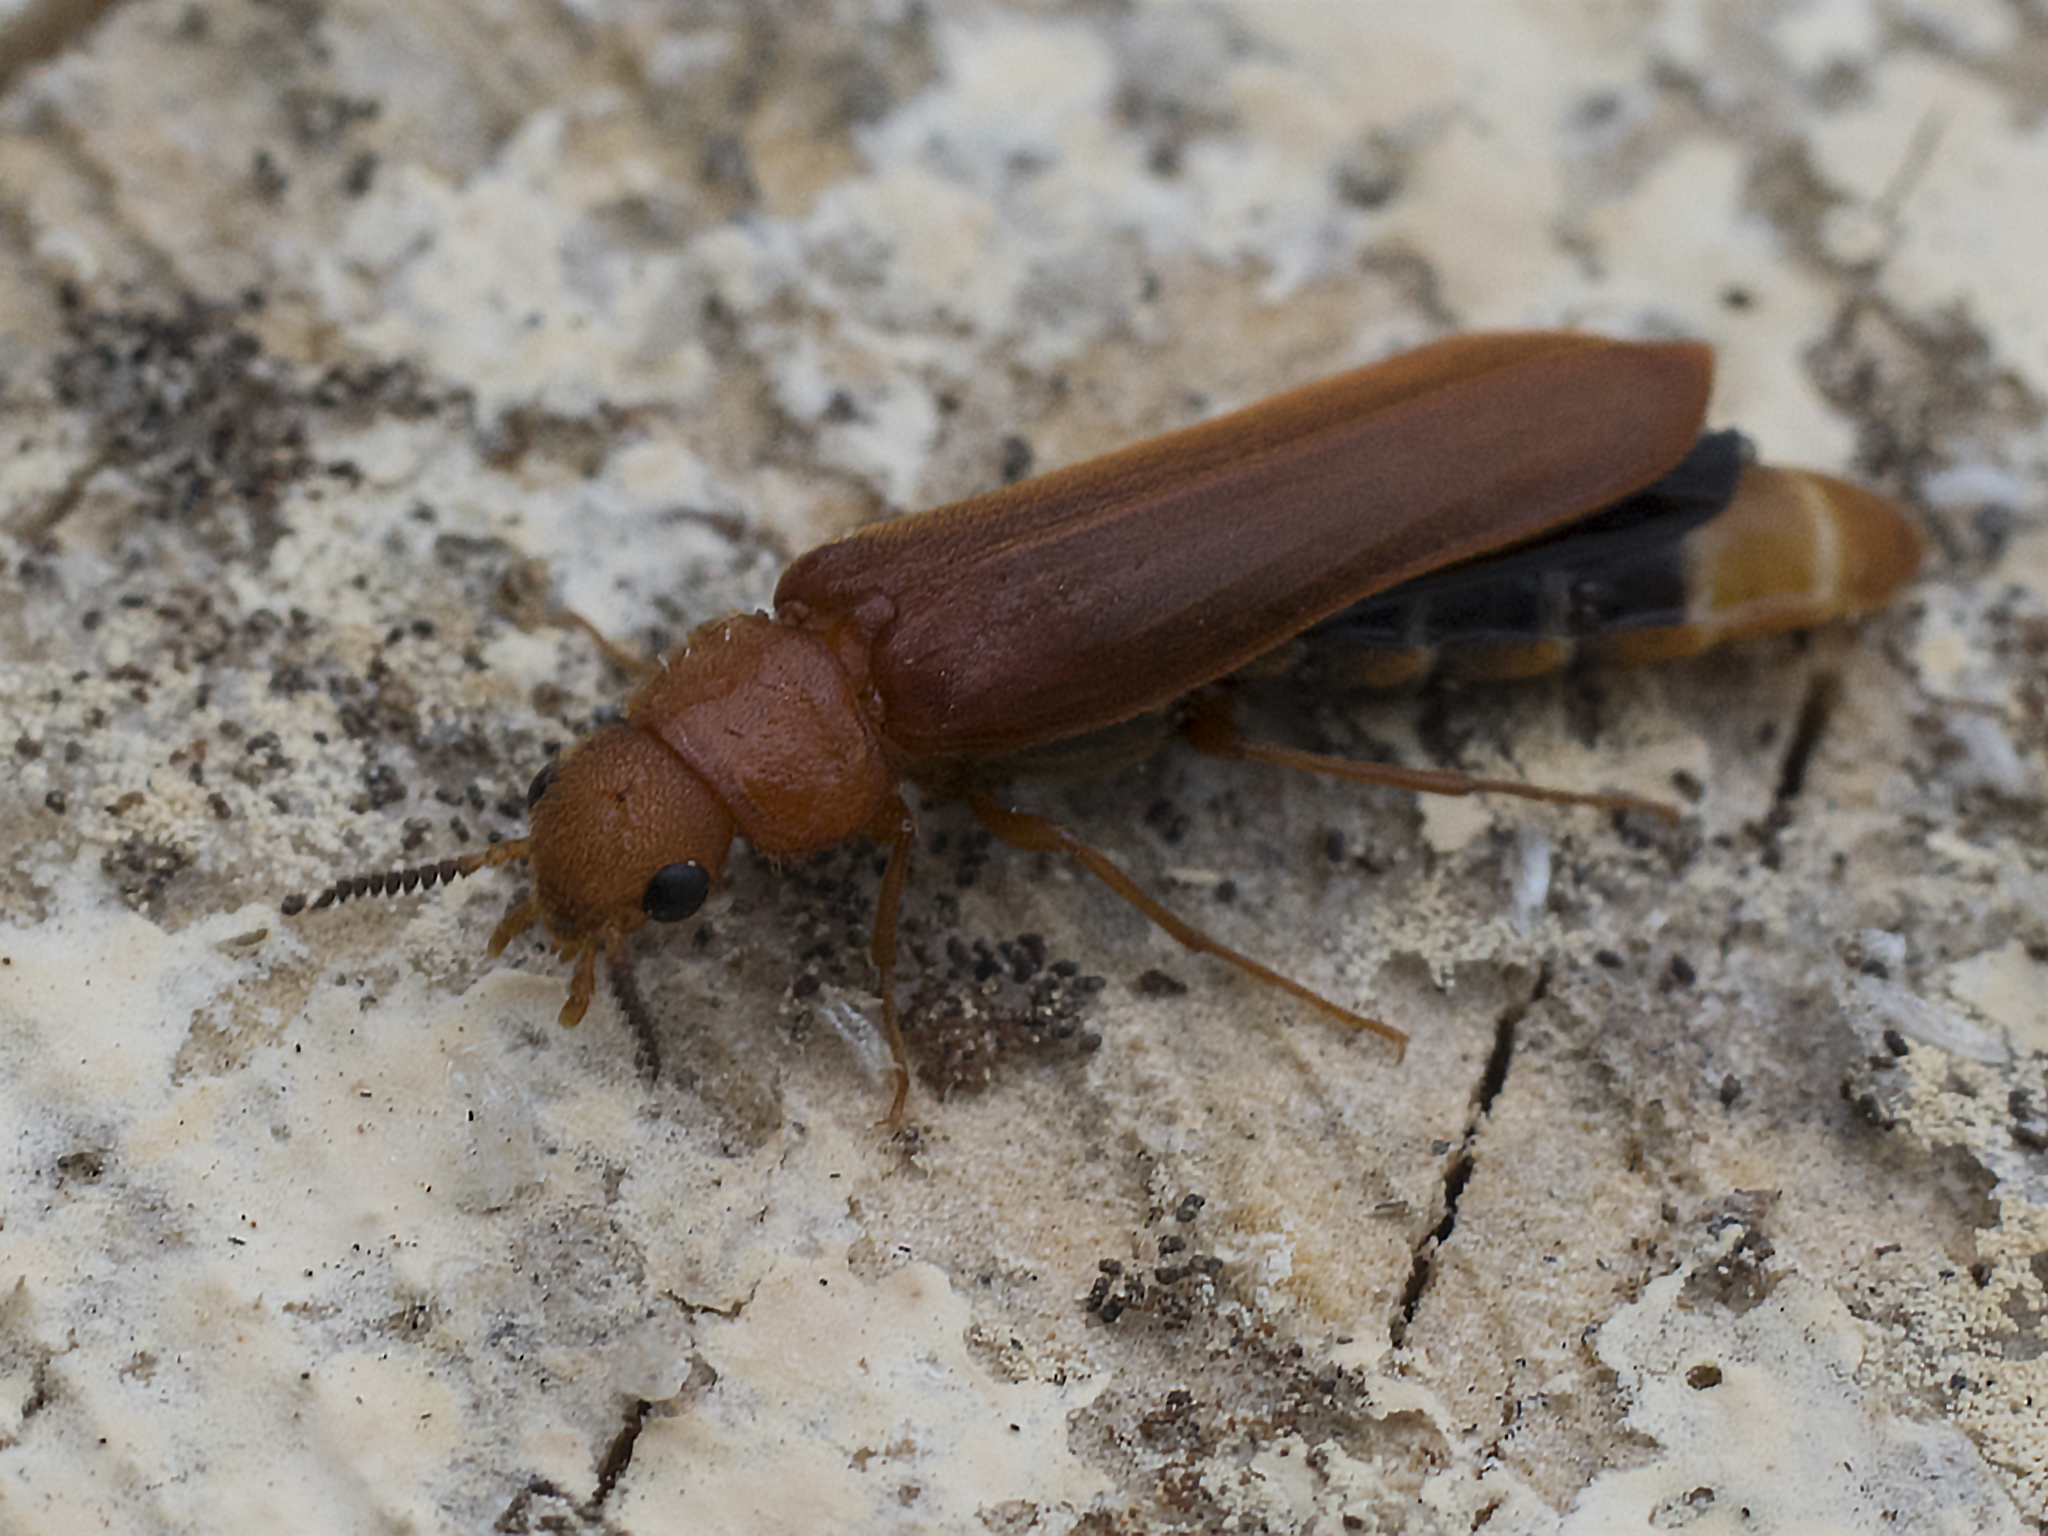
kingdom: Animalia
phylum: Arthropoda
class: Insecta
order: Coleoptera
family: Lymexylidae
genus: Hylecoetus
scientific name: Hylecoetus dermestoides
